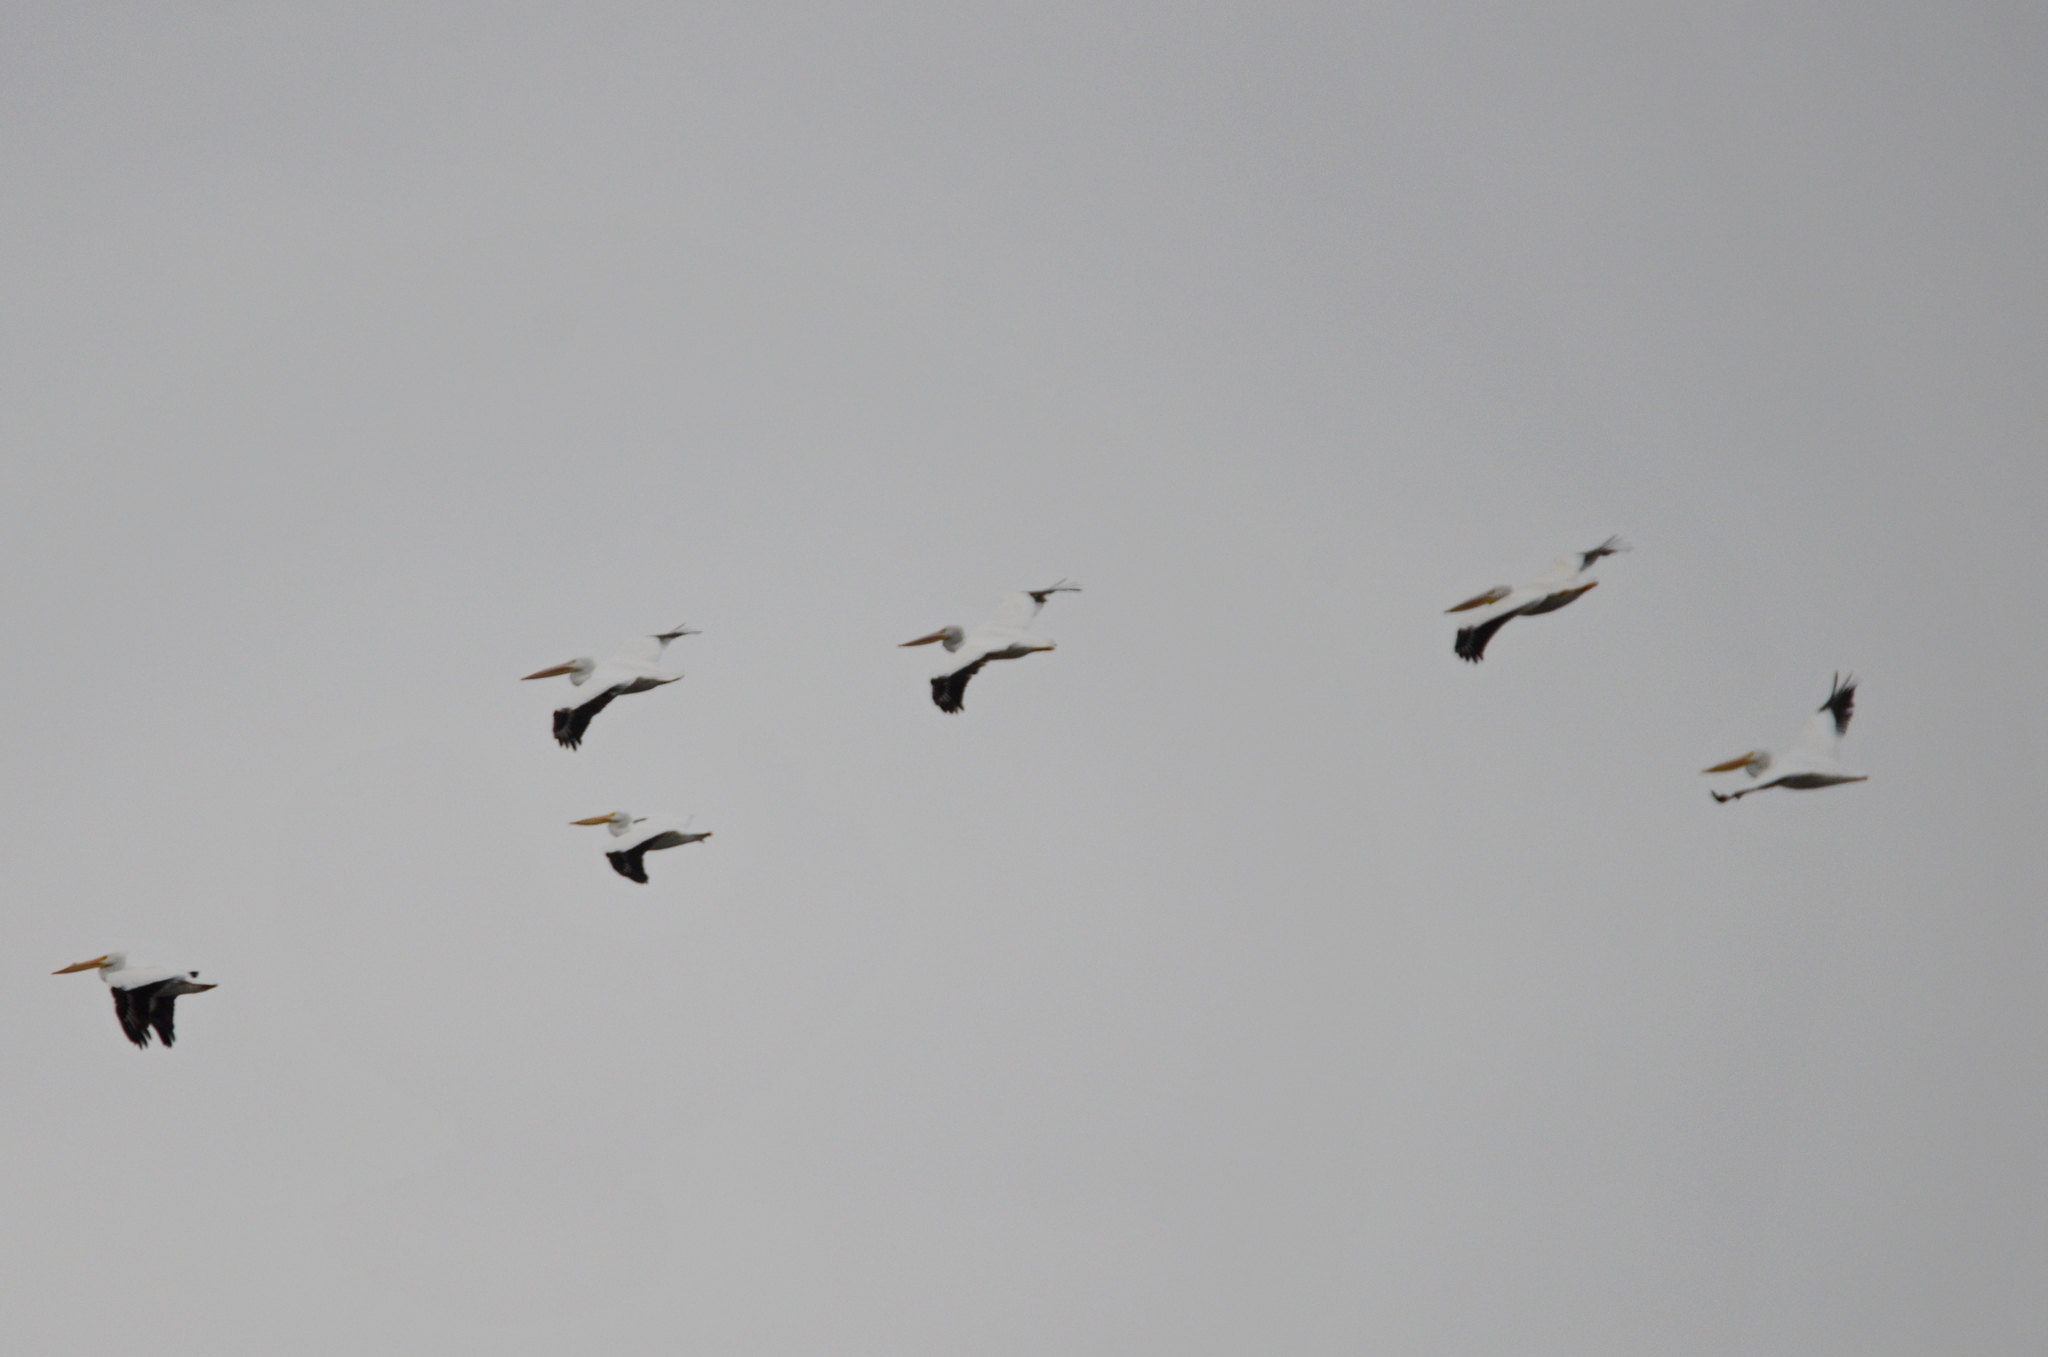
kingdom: Animalia
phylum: Chordata
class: Aves
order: Pelecaniformes
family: Pelecanidae
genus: Pelecanus
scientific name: Pelecanus erythrorhynchos
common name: American white pelican
